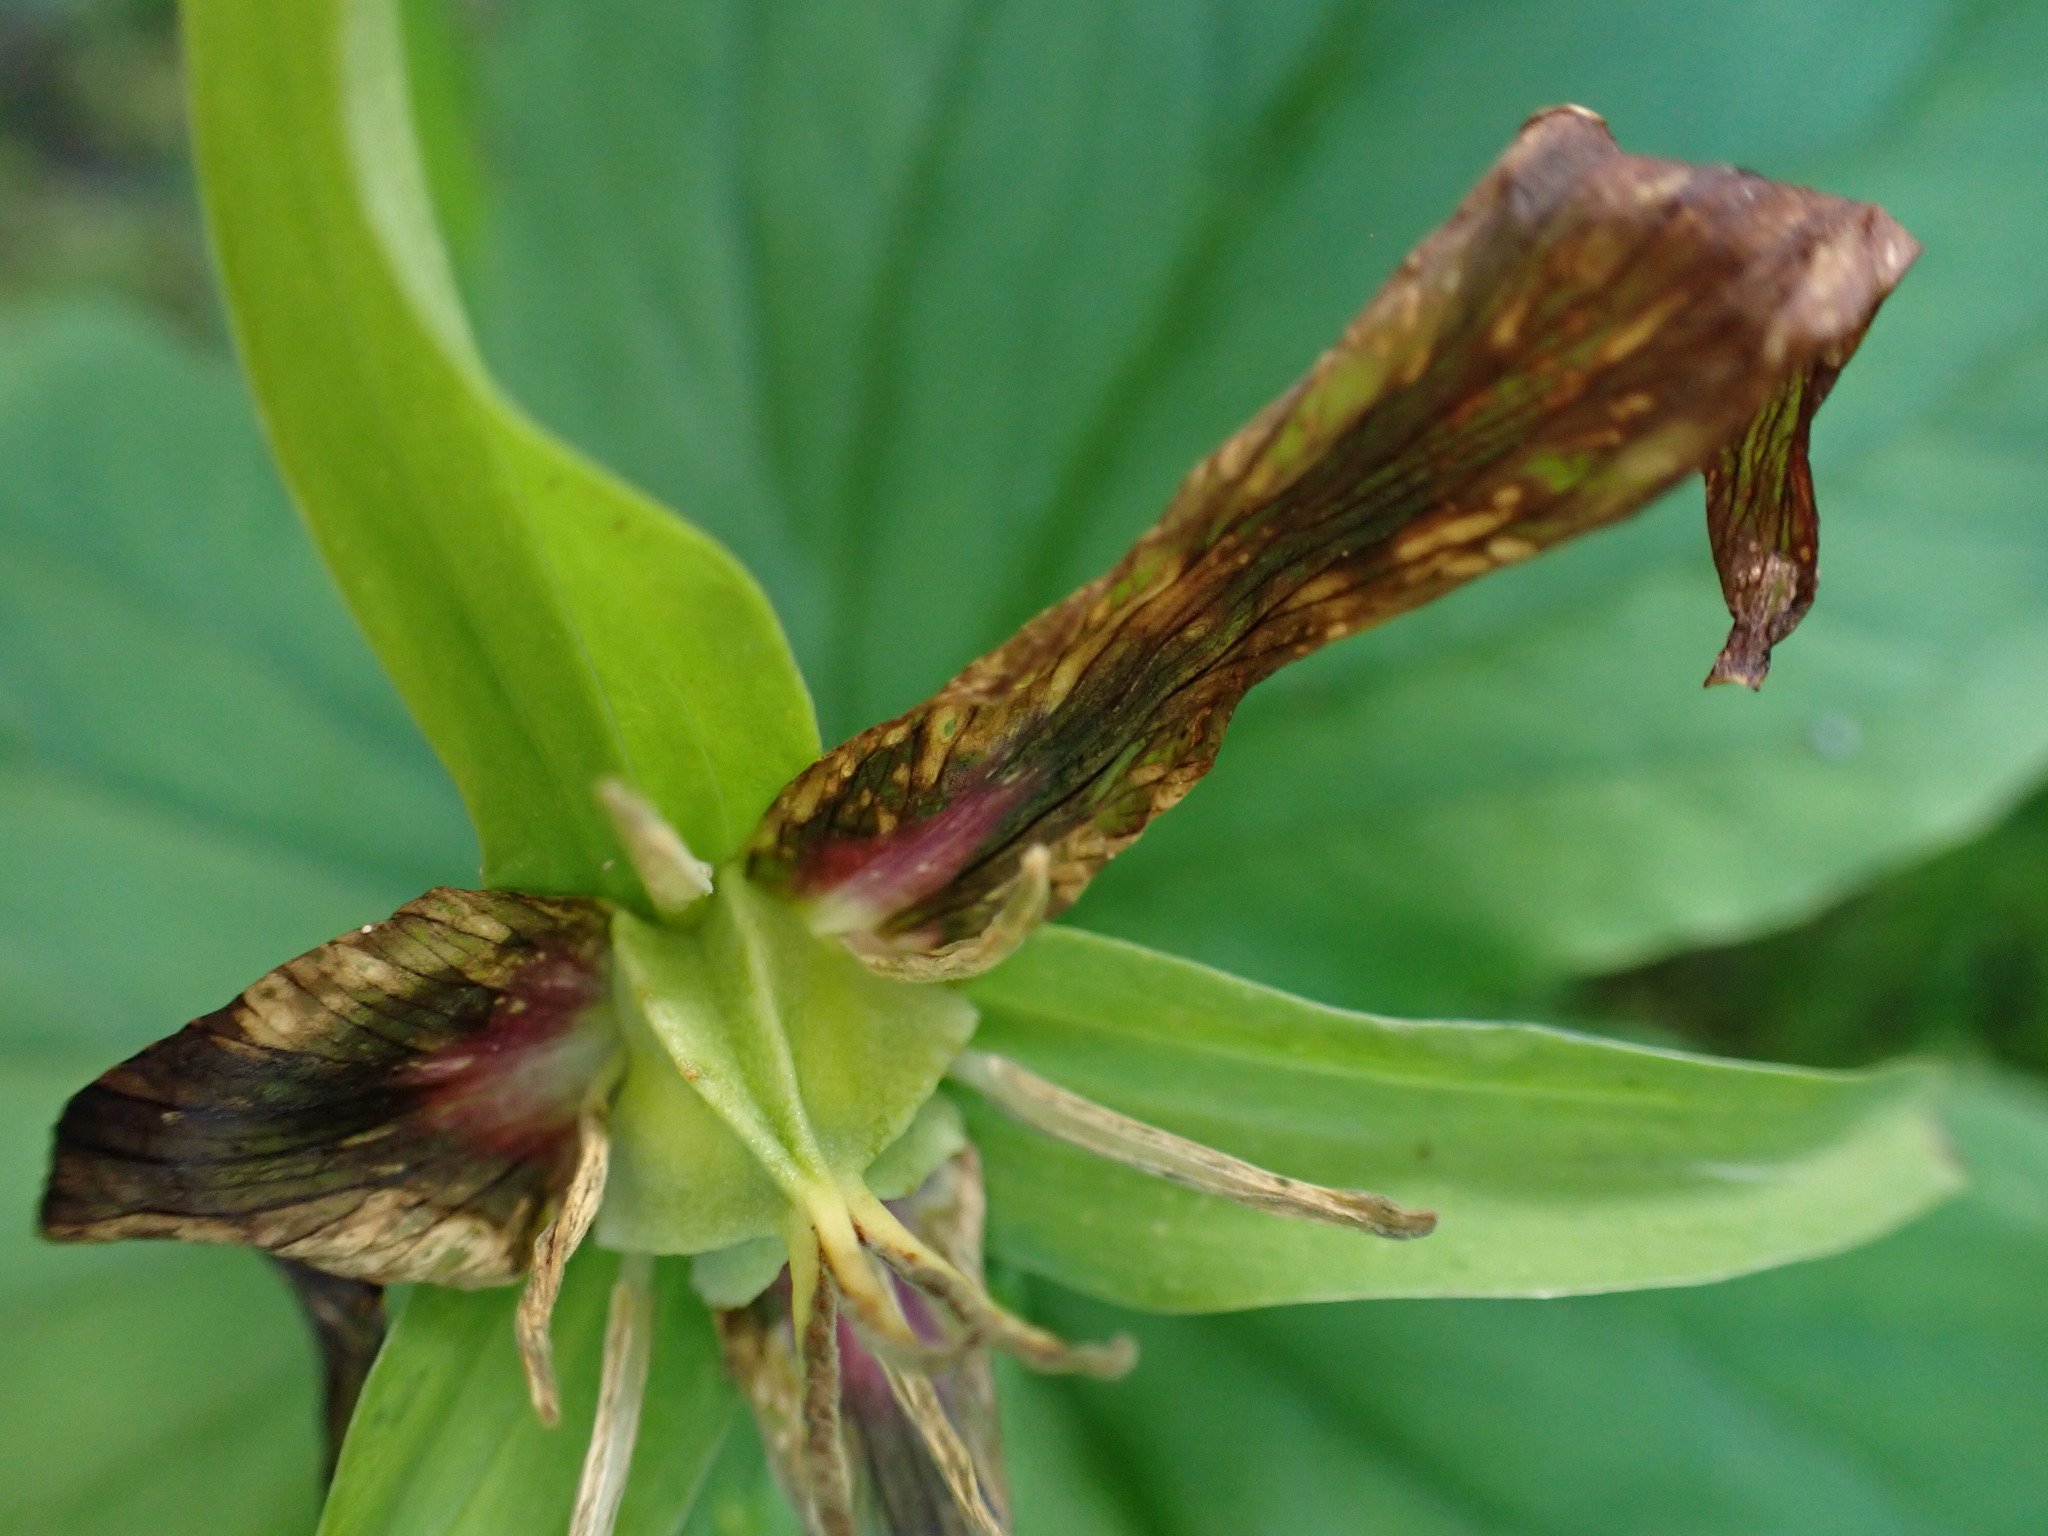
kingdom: Plantae
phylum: Tracheophyta
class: Liliopsida
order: Liliales
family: Melanthiaceae
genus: Trillium
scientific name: Trillium ovatum
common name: Pacific trillium
